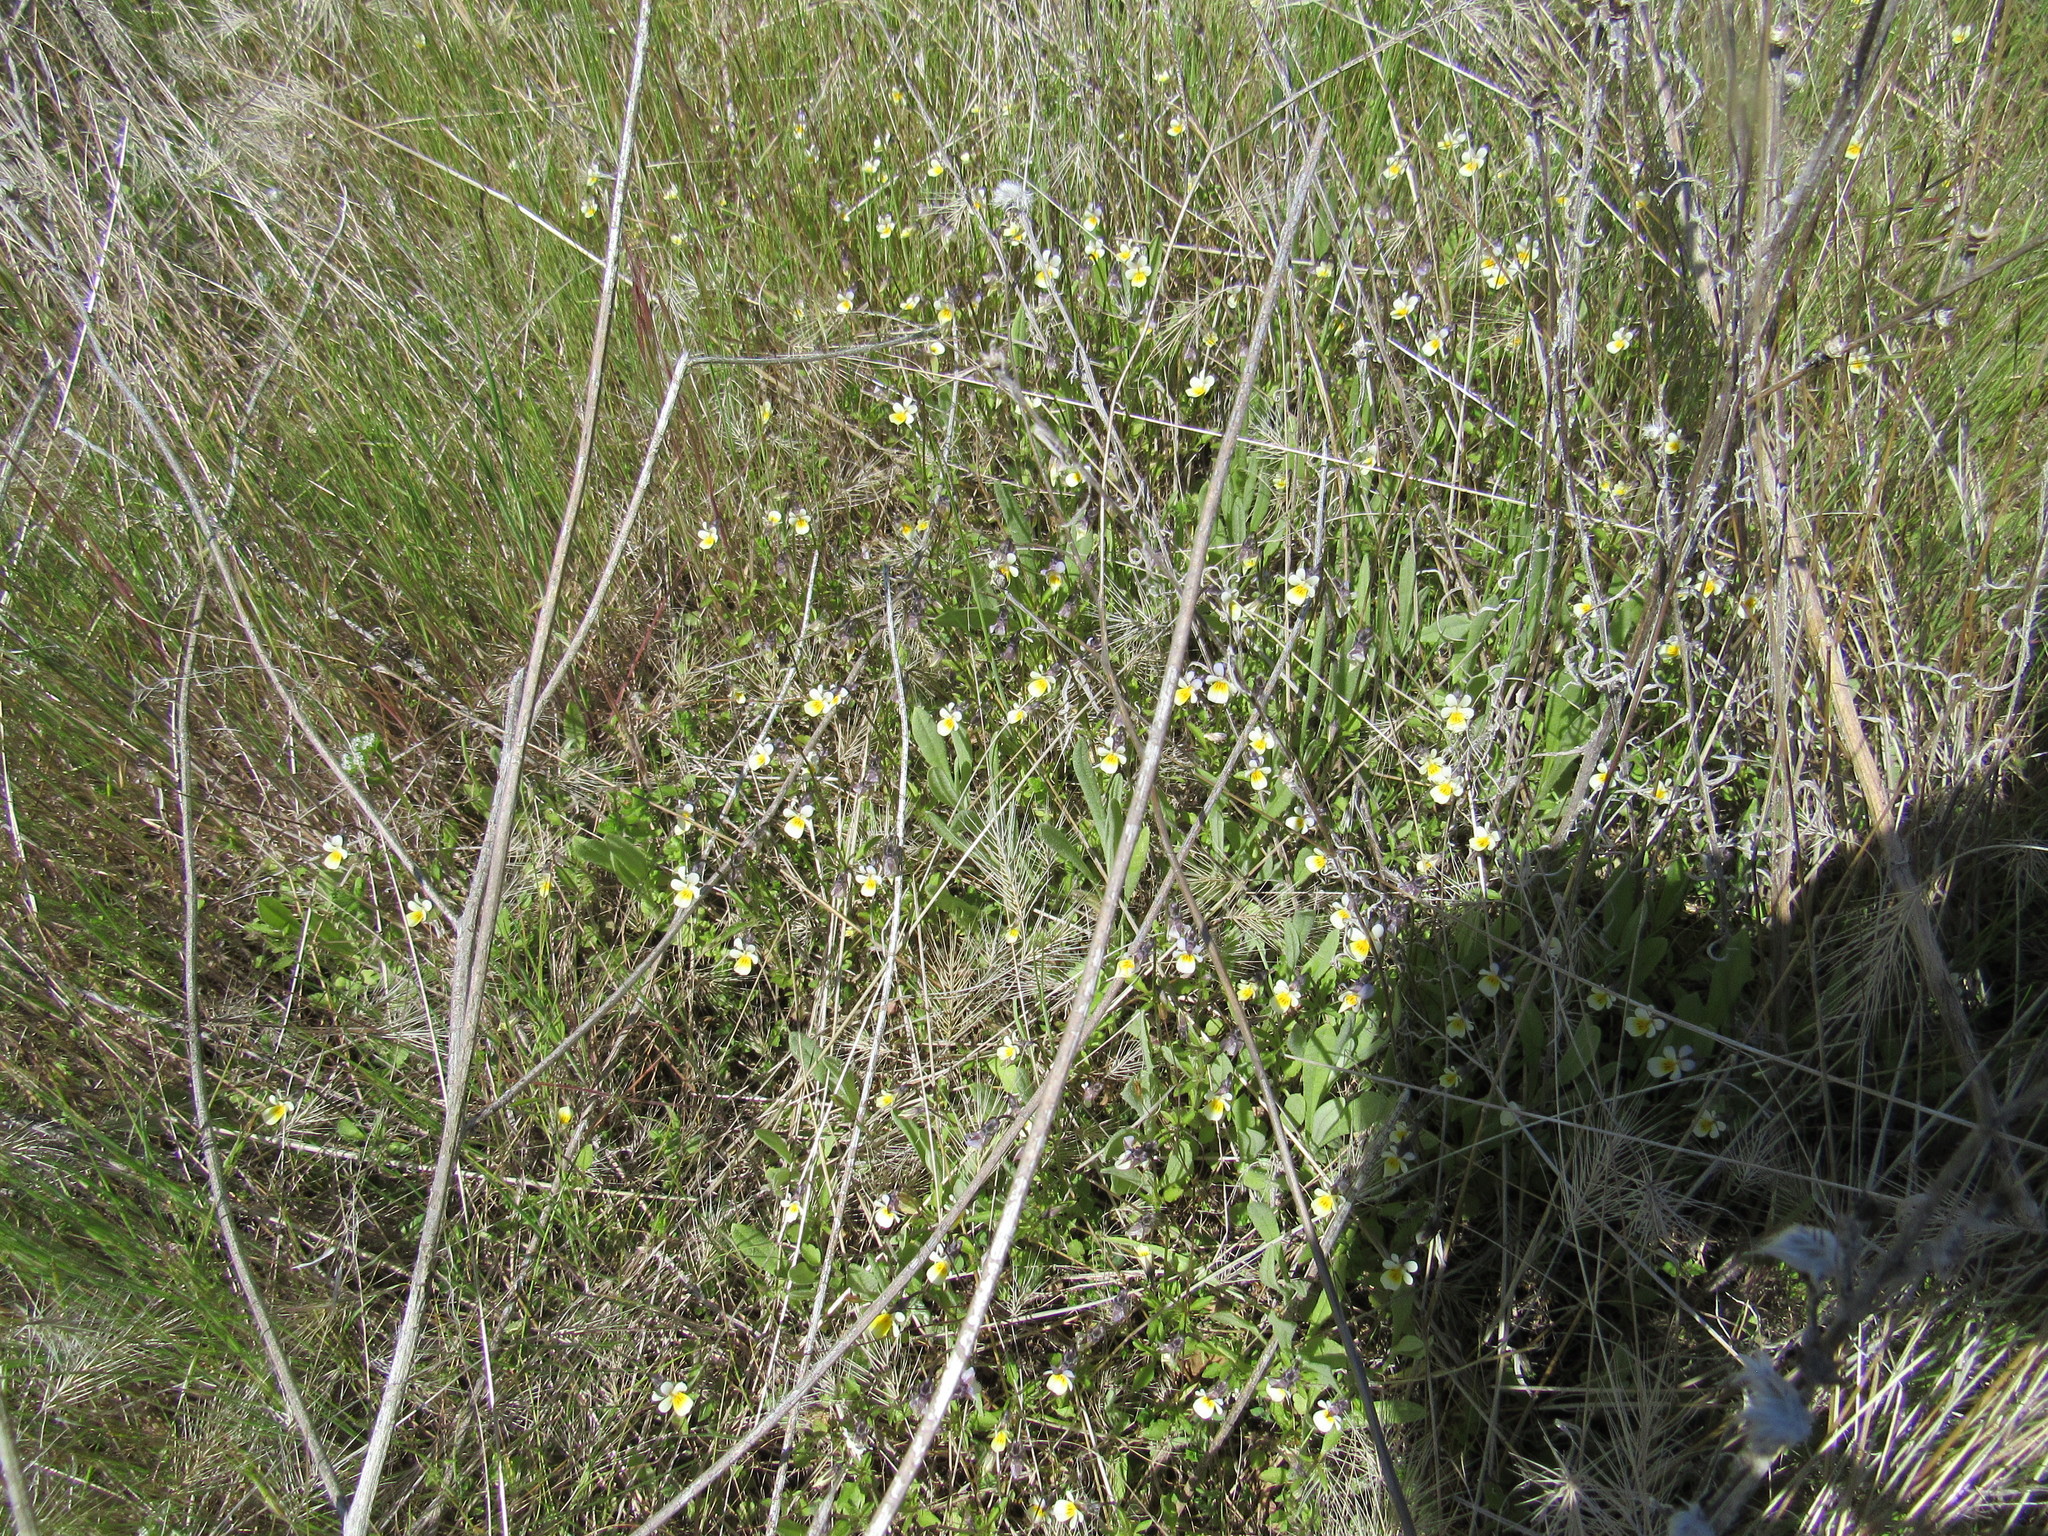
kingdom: Plantae
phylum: Tracheophyta
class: Magnoliopsida
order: Malpighiales
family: Violaceae
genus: Viola
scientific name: Viola arvensis
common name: Field pansy
